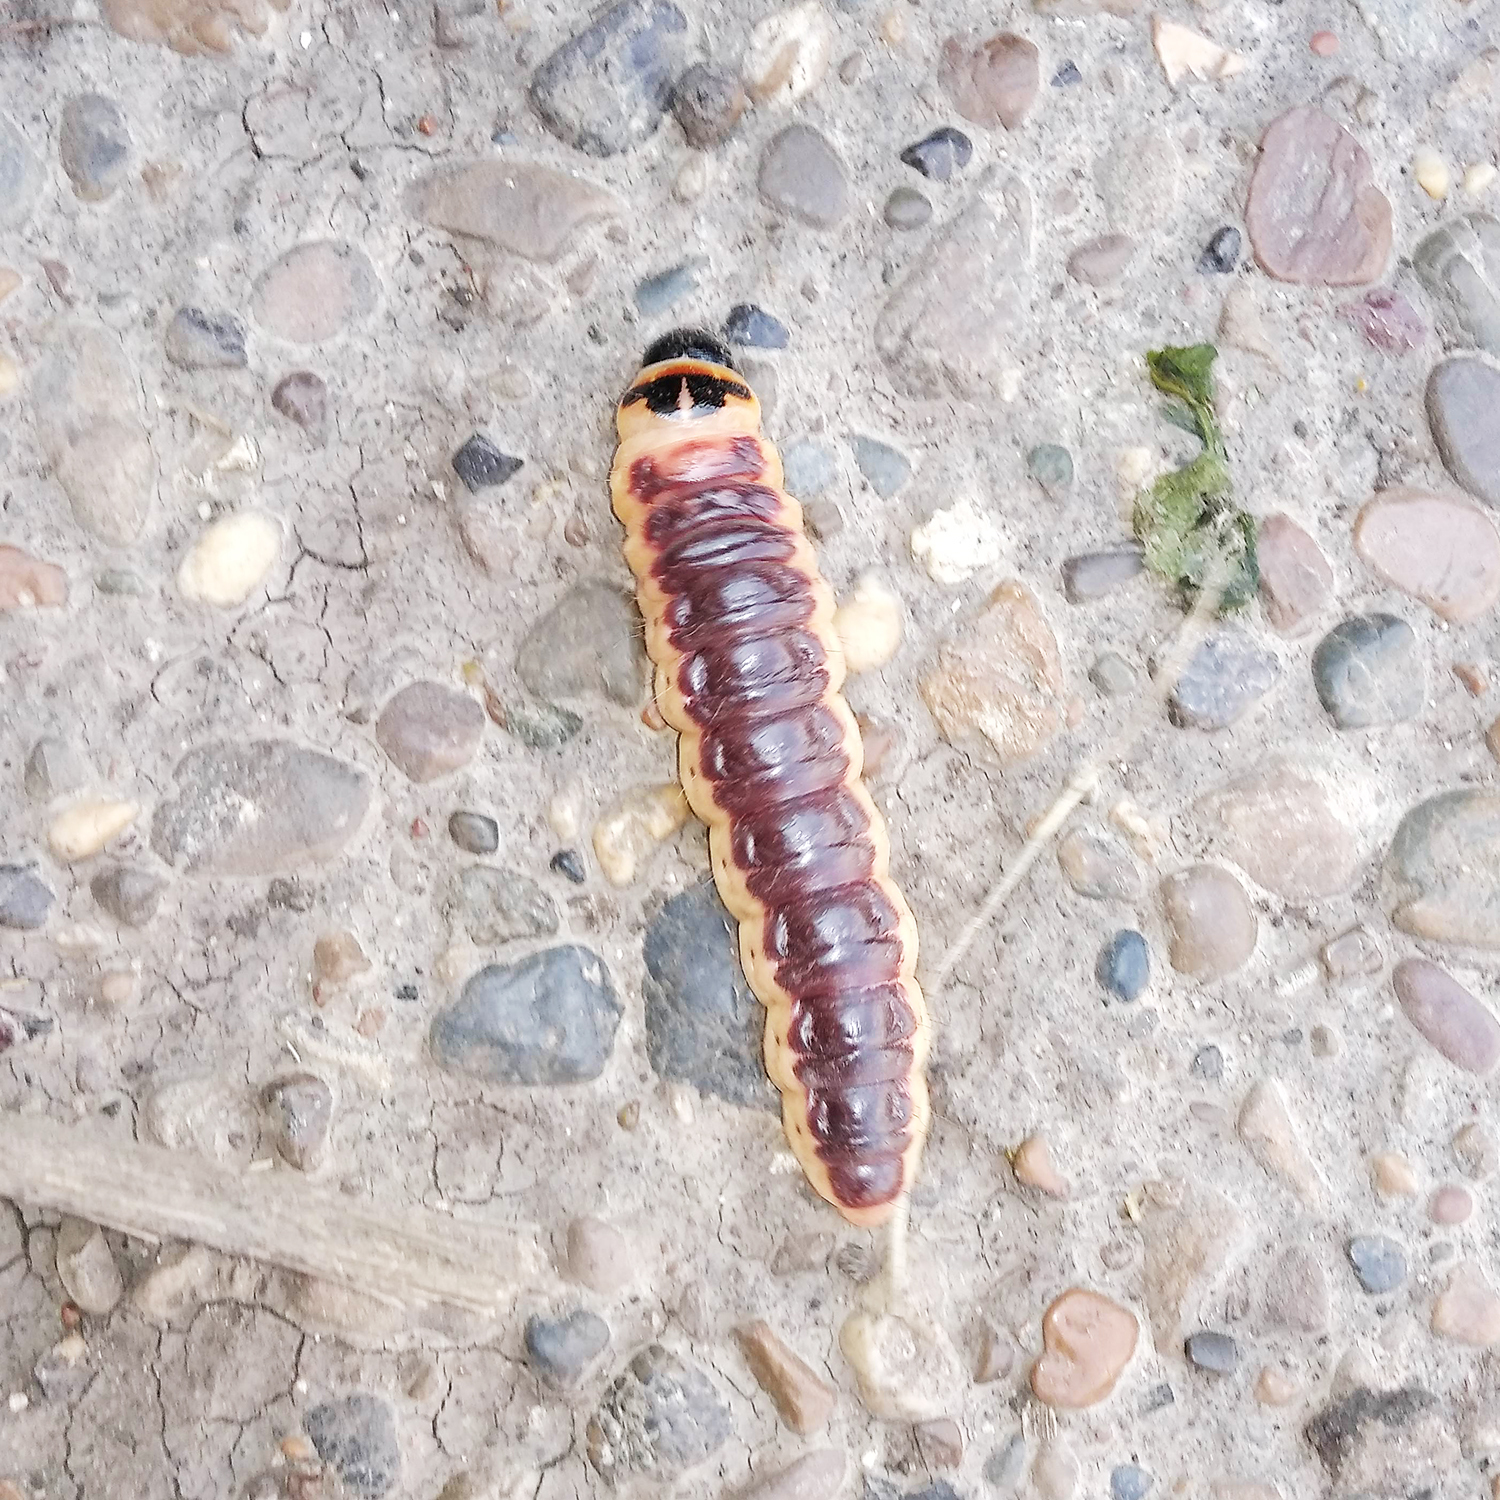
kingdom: Animalia
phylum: Arthropoda
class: Insecta
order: Lepidoptera
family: Cossidae
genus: Cossus
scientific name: Cossus cossus
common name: Goat moth
